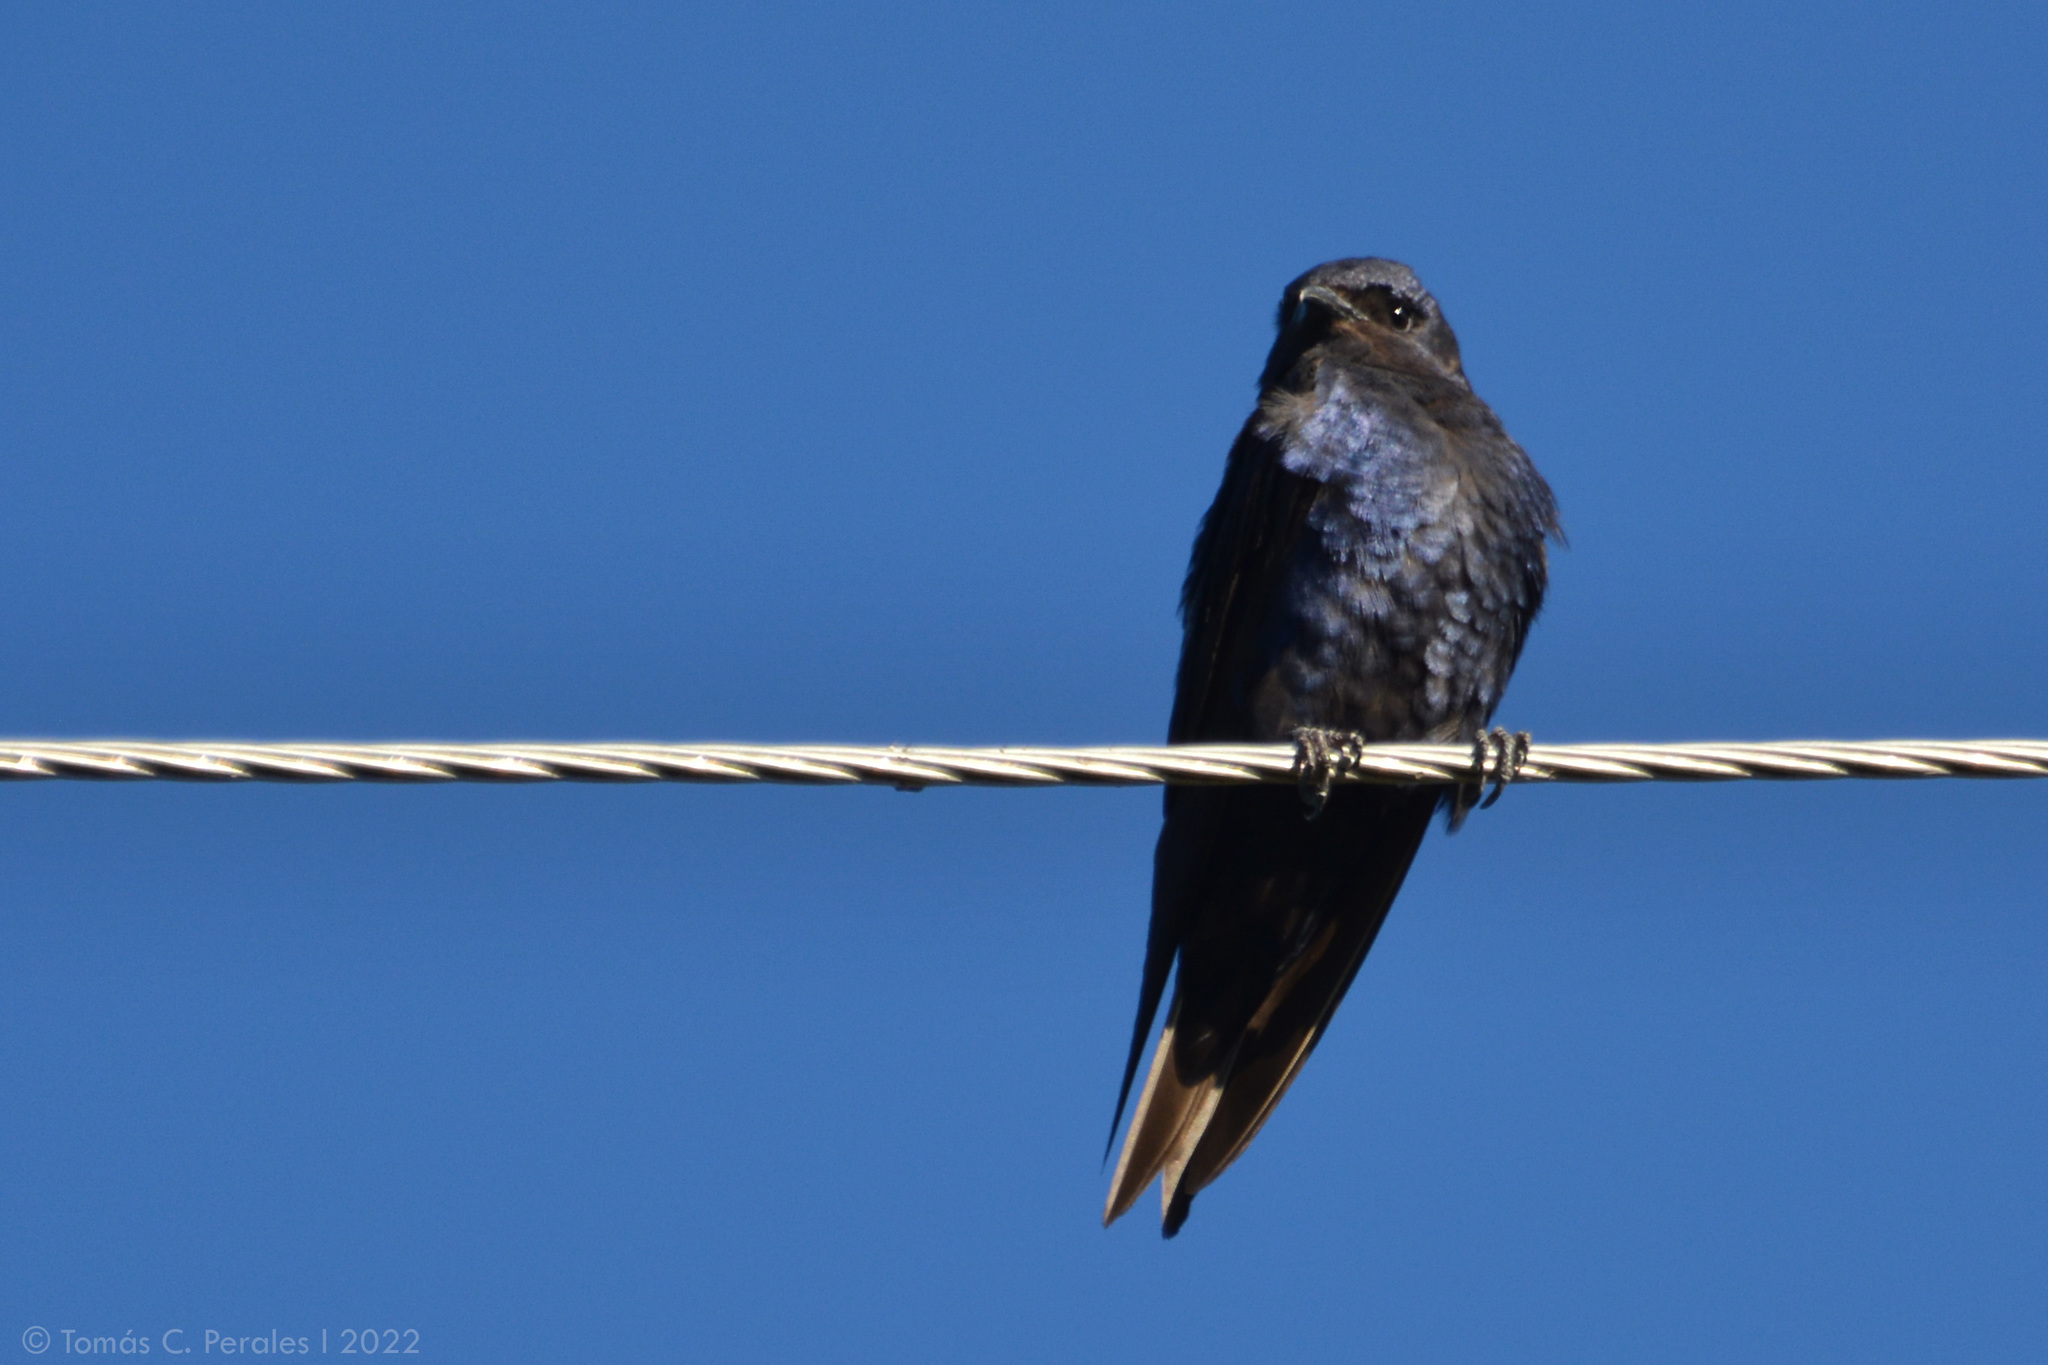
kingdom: Animalia
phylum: Chordata
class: Aves
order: Passeriformes
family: Hirundinidae
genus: Progne
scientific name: Progne elegans
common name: Southern martin
